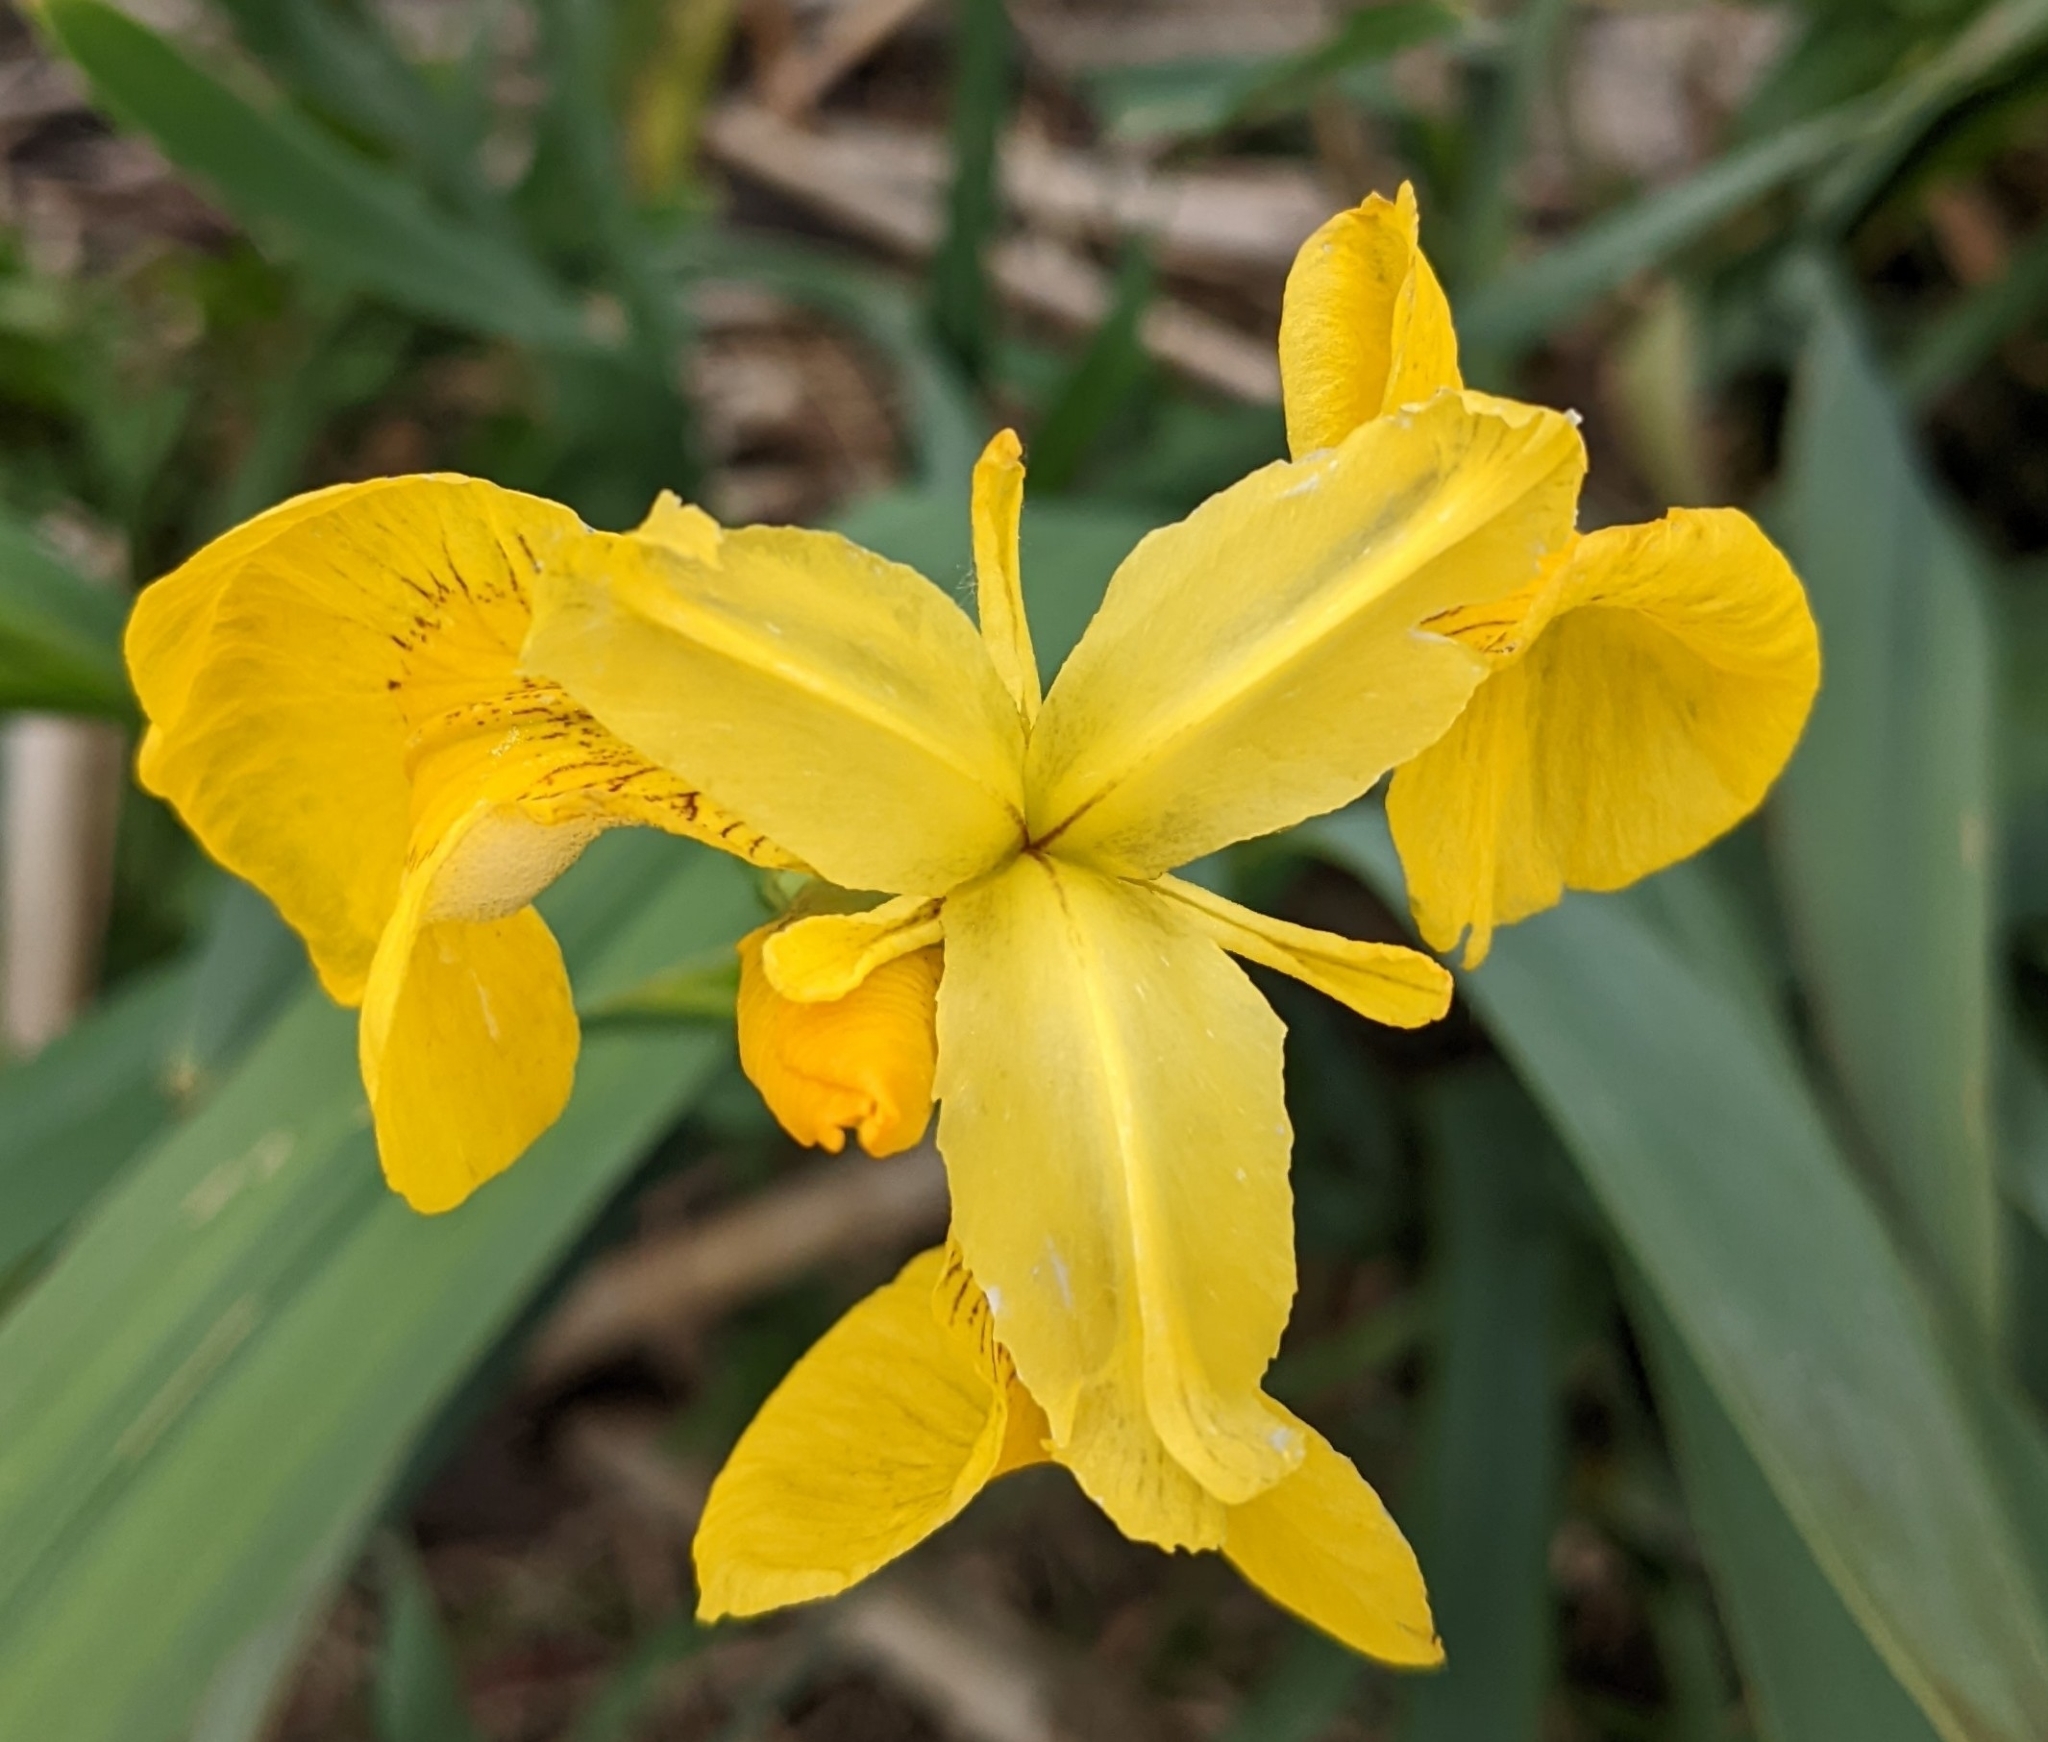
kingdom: Plantae
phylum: Tracheophyta
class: Liliopsida
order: Asparagales
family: Iridaceae
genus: Iris
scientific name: Iris pseudacorus
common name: Yellow flag
